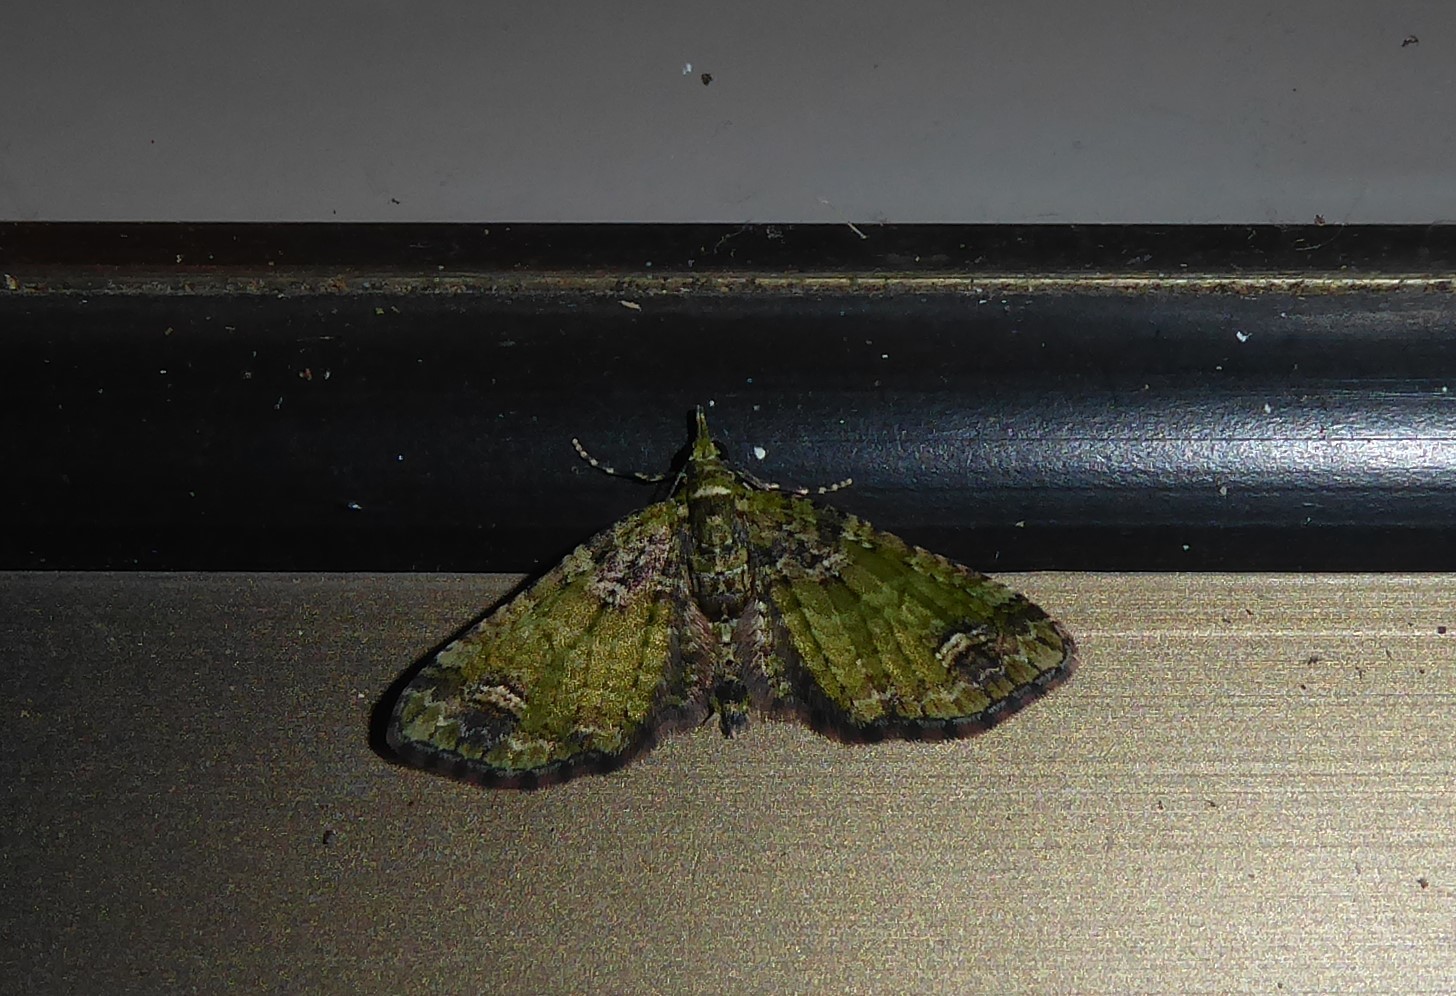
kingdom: Animalia
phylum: Arthropoda
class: Insecta
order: Lepidoptera
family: Geometridae
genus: Idaea
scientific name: Idaea mutanda
